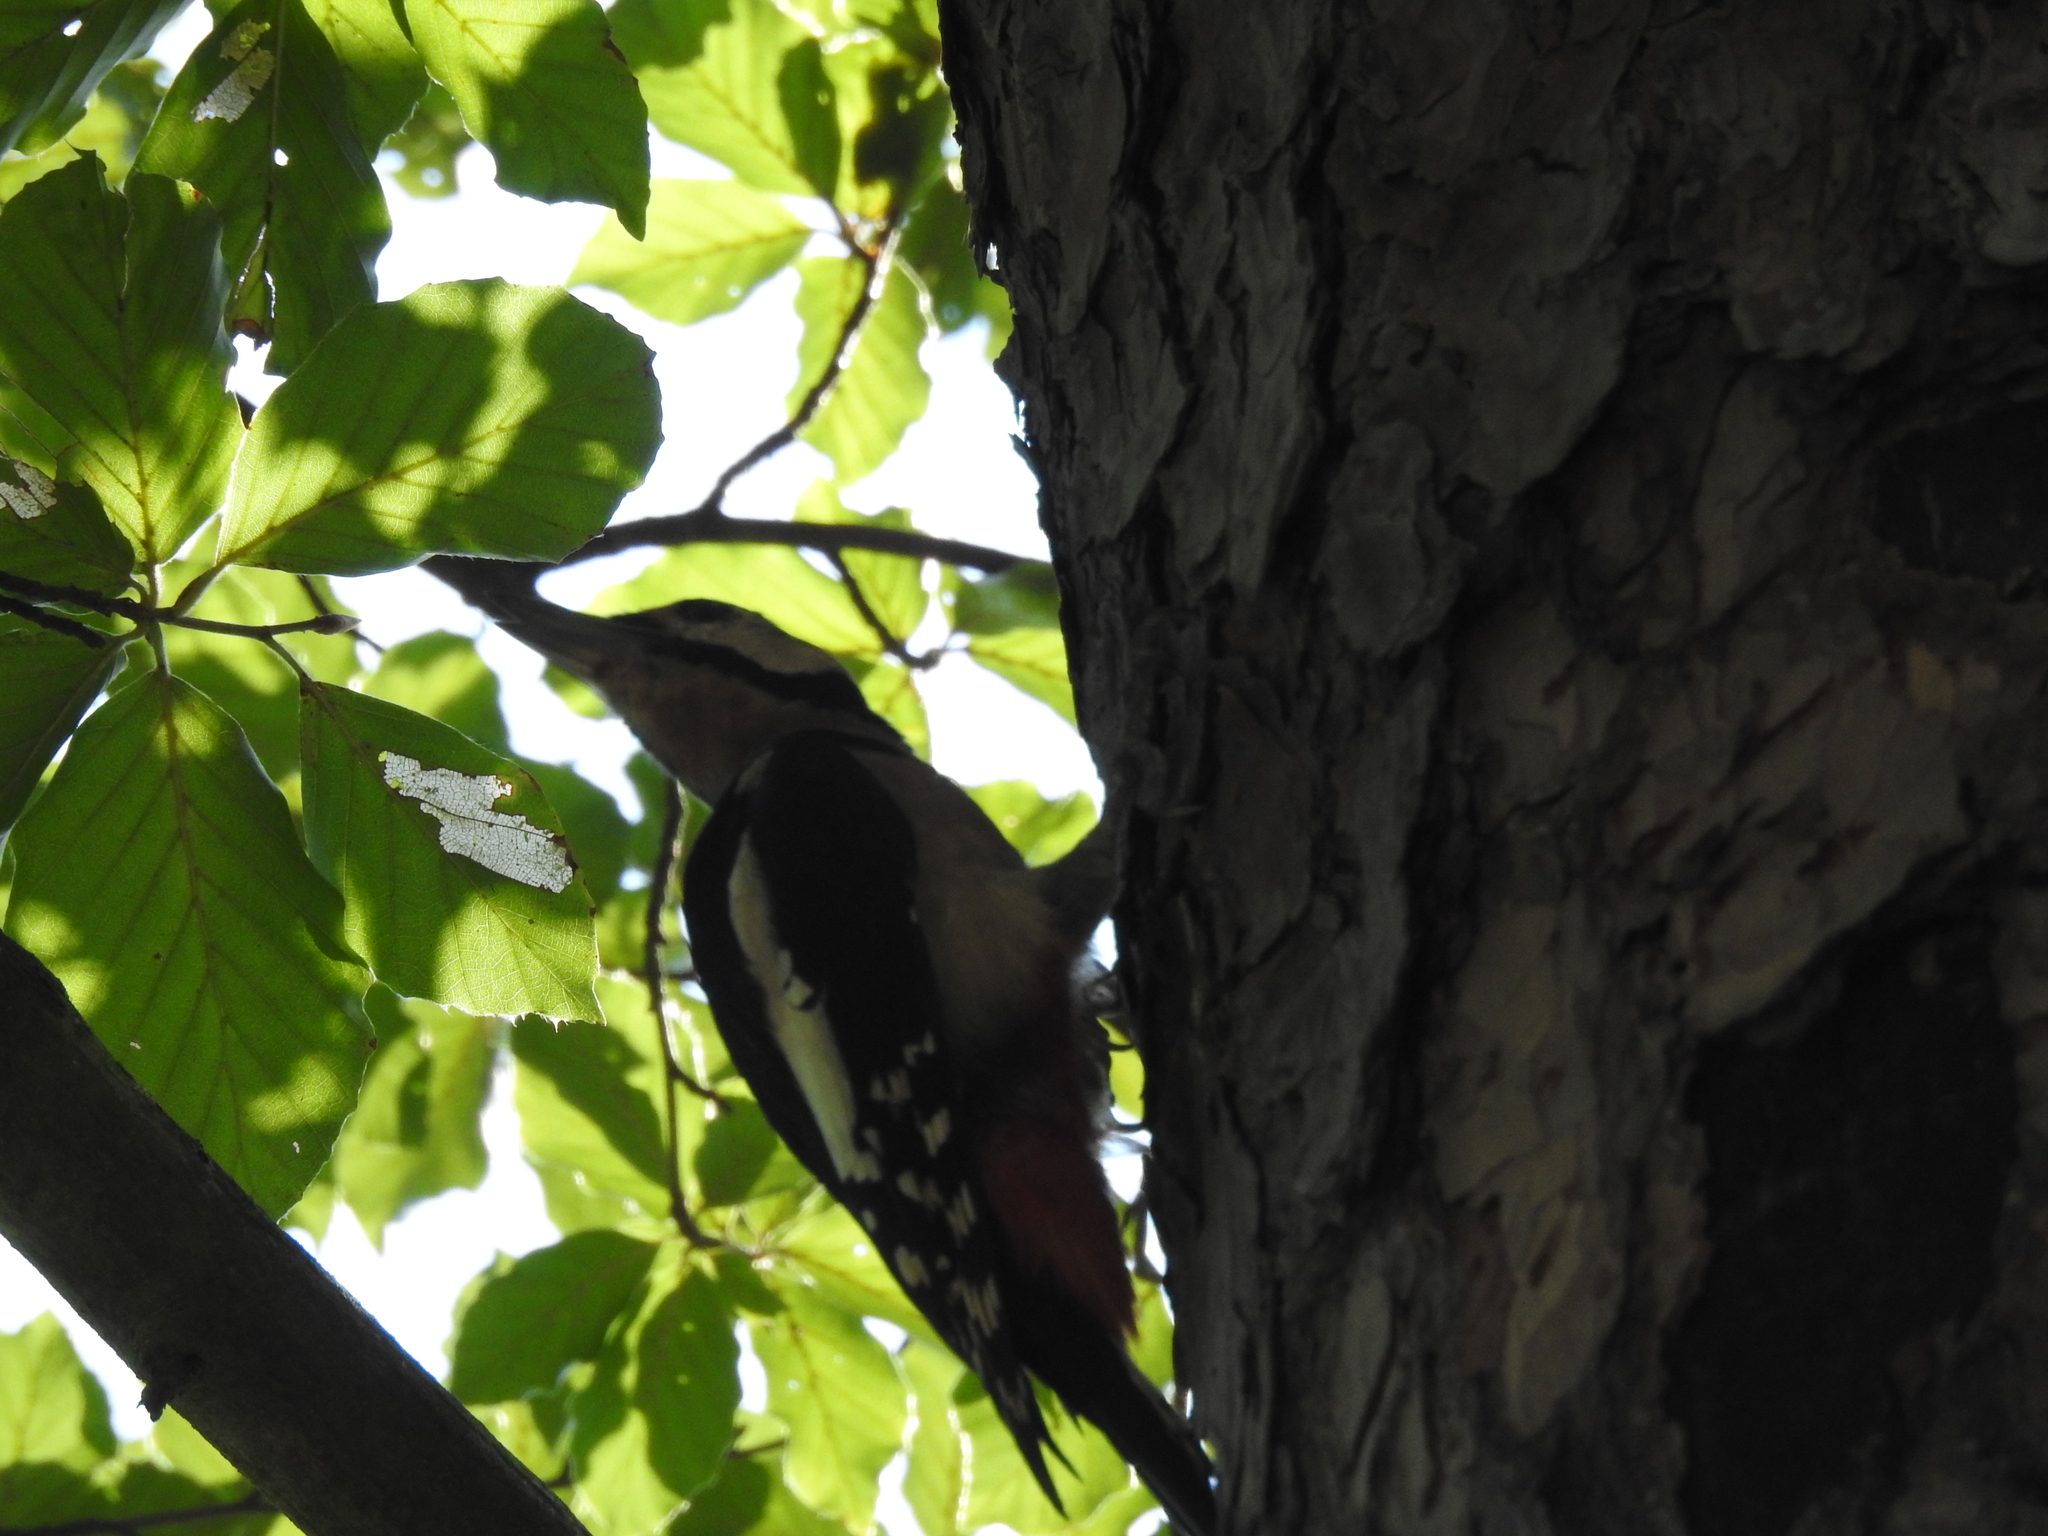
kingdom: Animalia
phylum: Chordata
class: Aves
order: Piciformes
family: Picidae
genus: Dendrocopos
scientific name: Dendrocopos major
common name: Great spotted woodpecker
